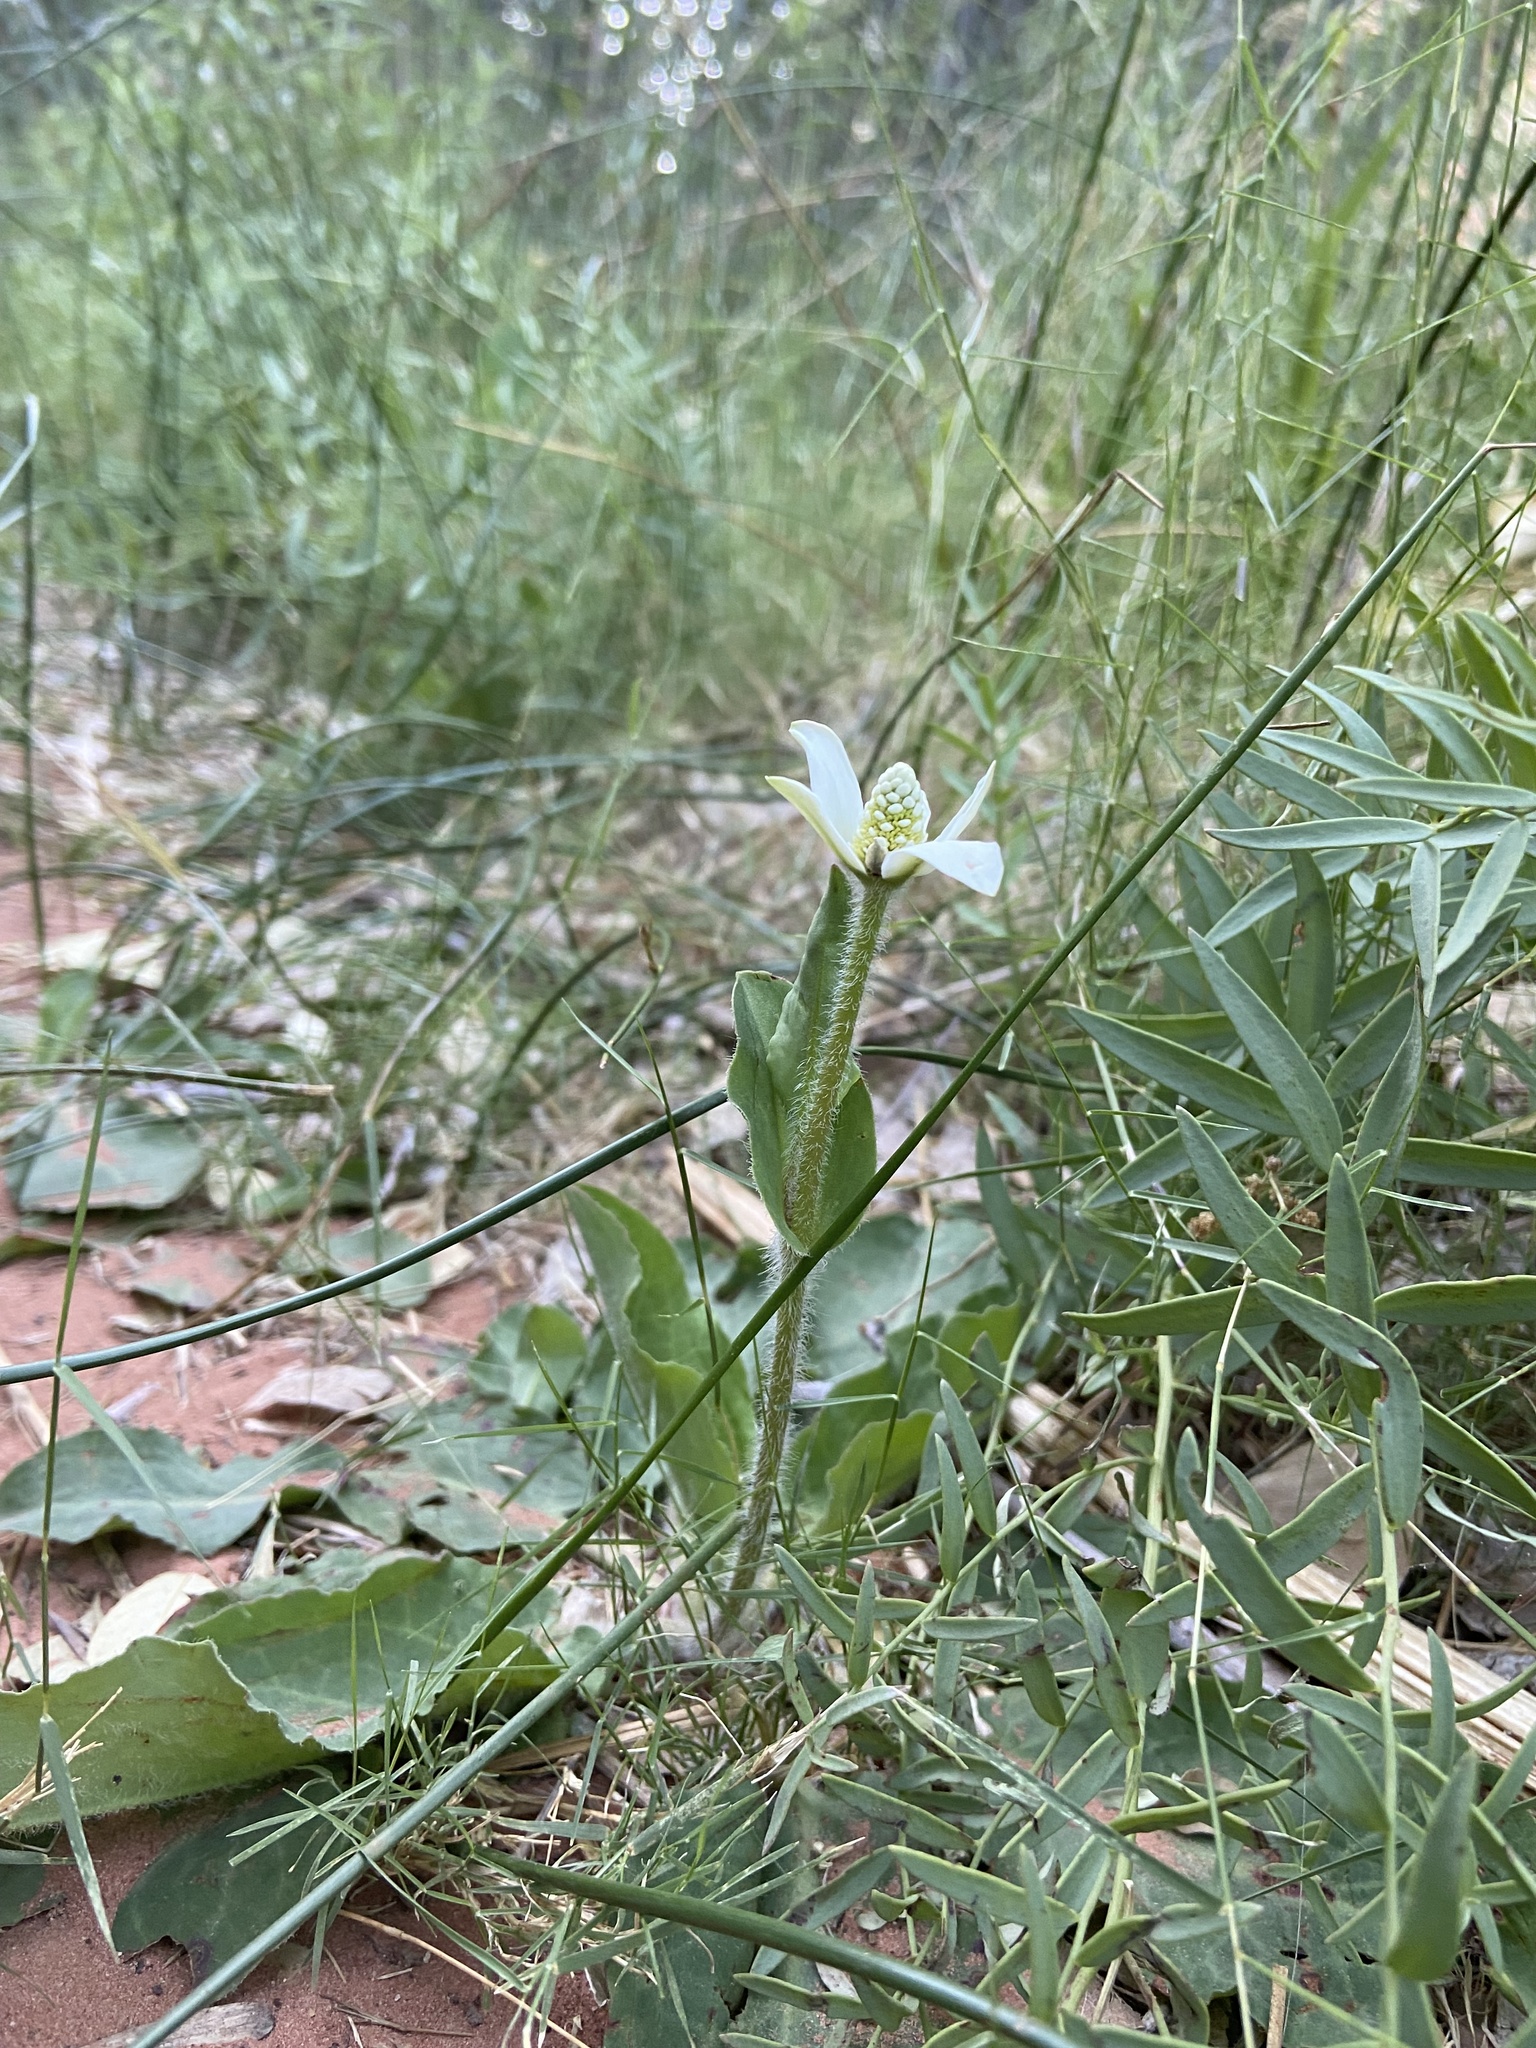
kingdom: Plantae
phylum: Tracheophyta
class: Magnoliopsida
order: Piperales
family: Saururaceae
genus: Anemopsis
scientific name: Anemopsis californica
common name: Apache-beads
